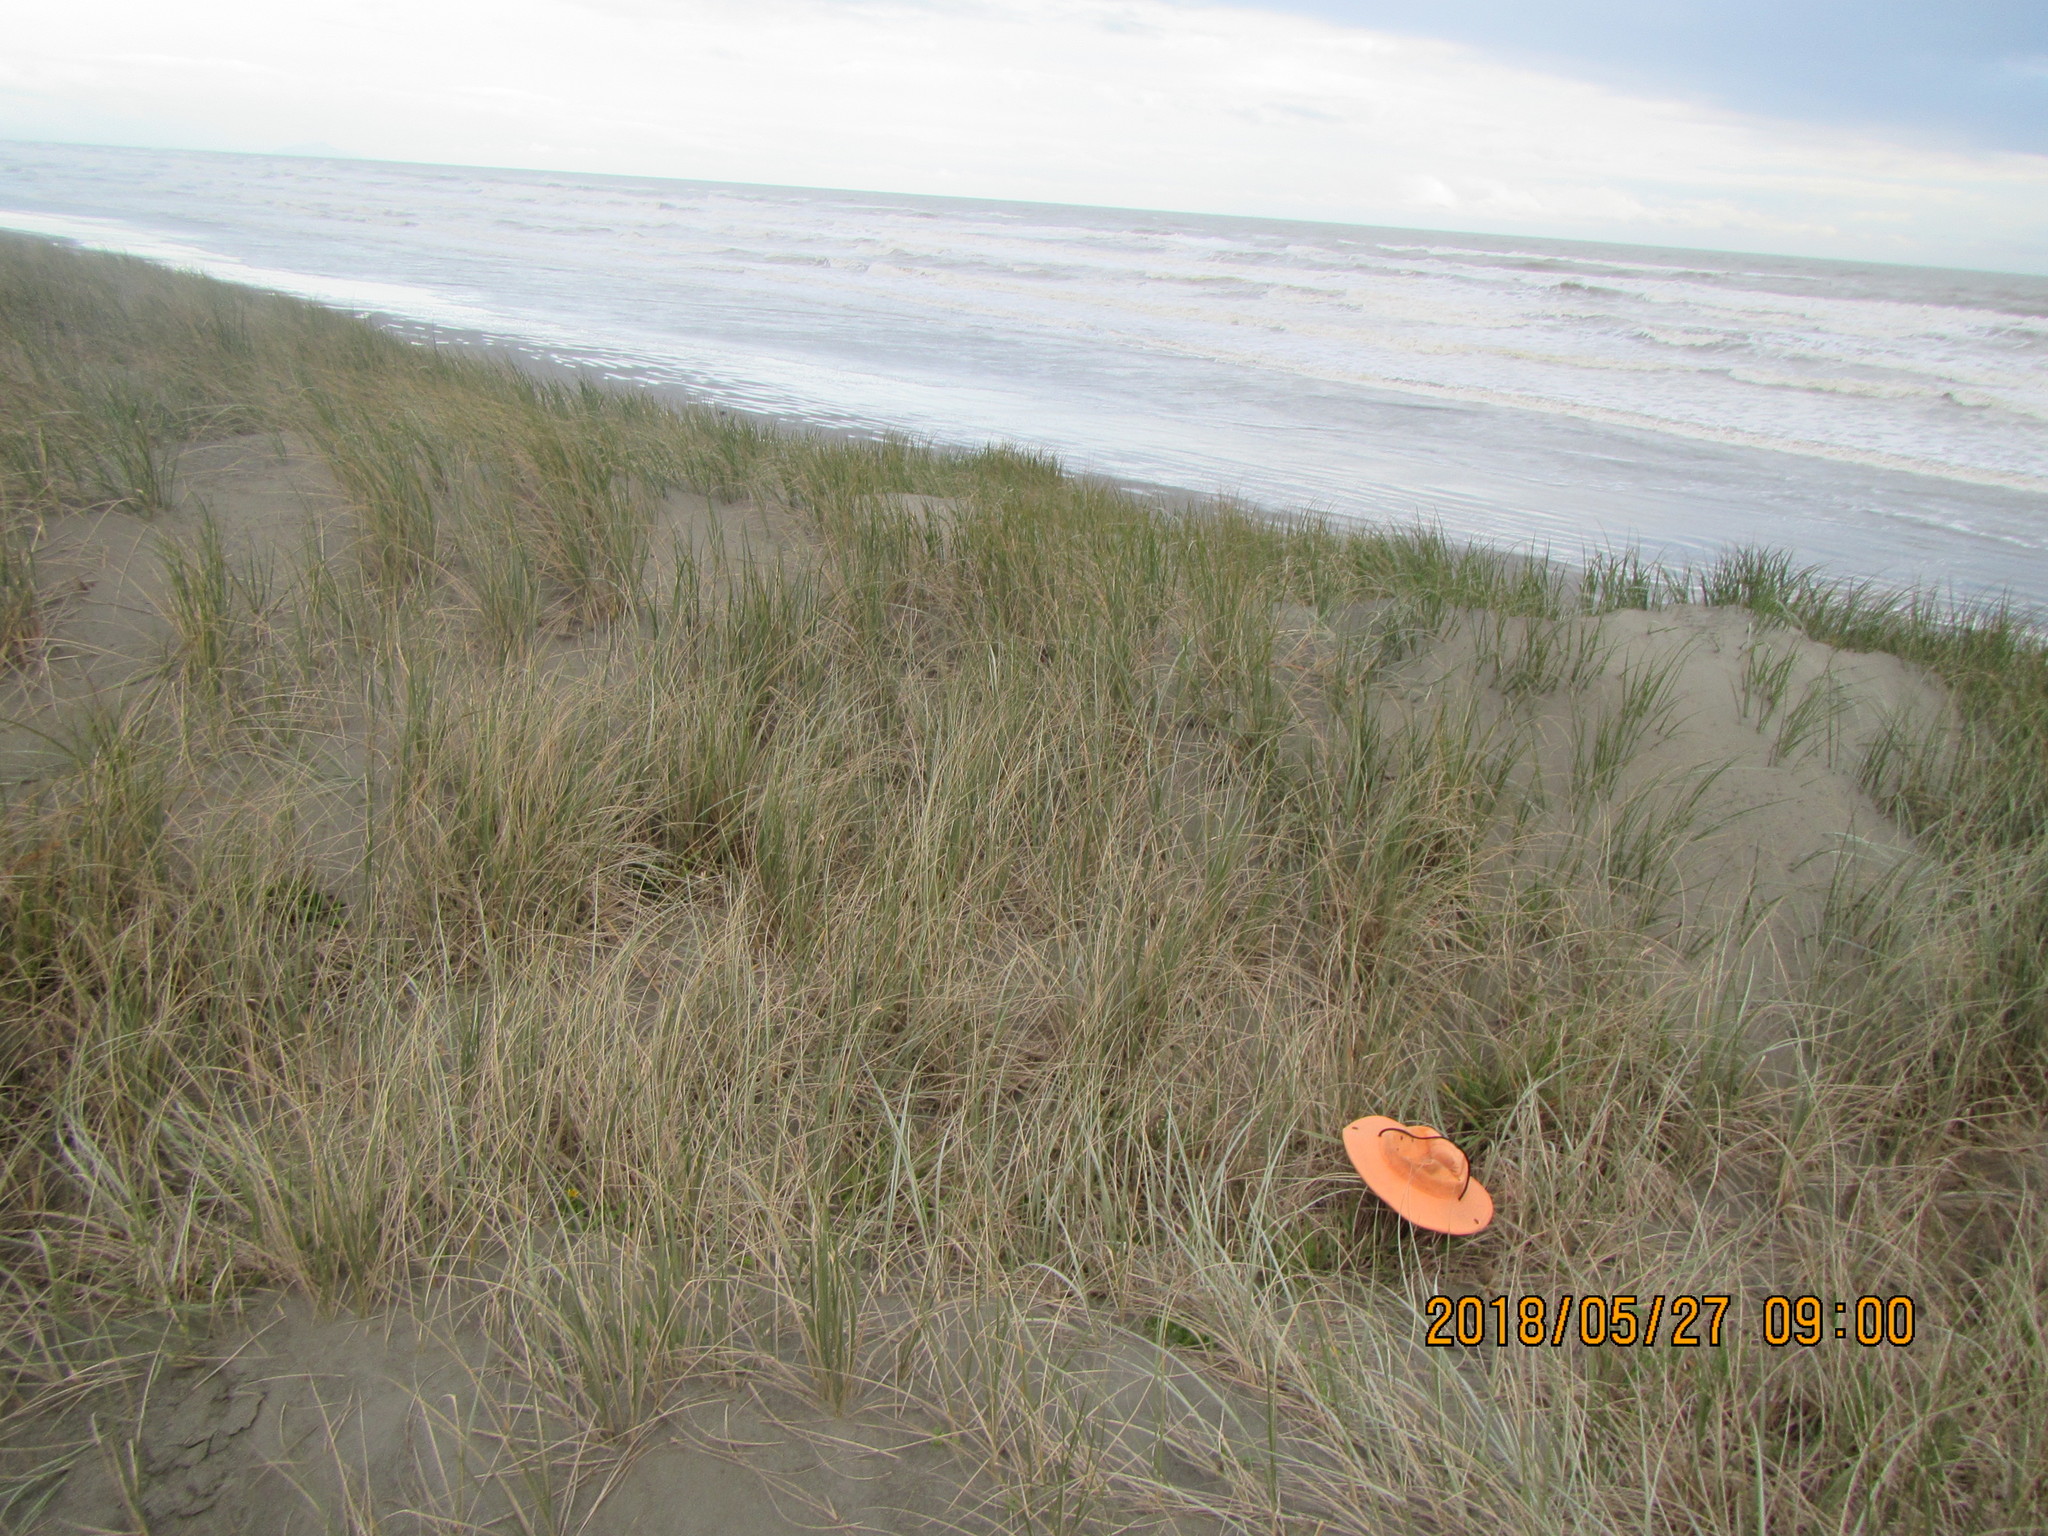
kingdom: Animalia
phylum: Arthropoda
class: Arachnida
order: Araneae
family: Thomisidae
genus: Sidymella
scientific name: Sidymella trapezia
